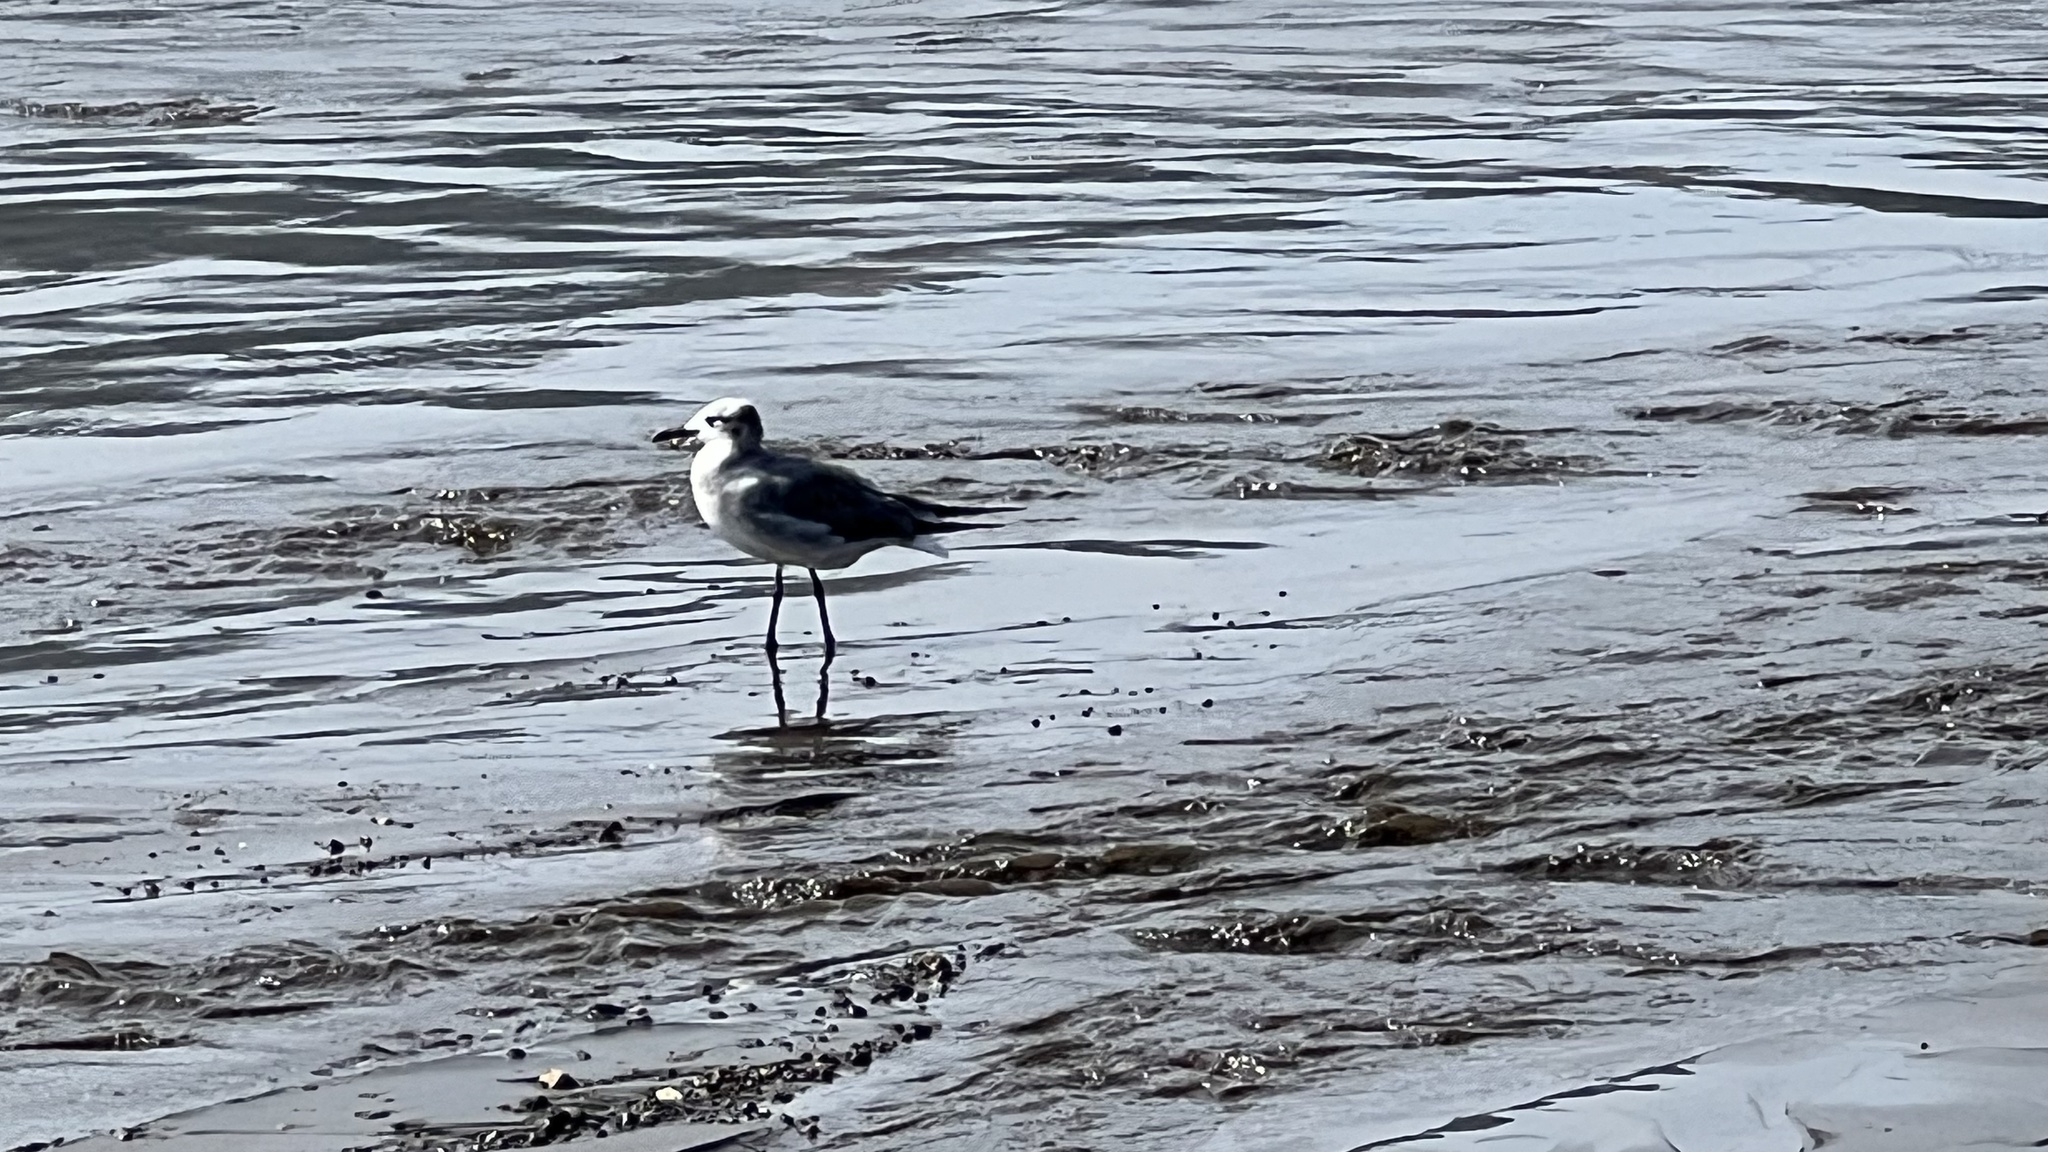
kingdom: Animalia
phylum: Chordata
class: Aves
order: Charadriiformes
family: Laridae
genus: Leucophaeus
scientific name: Leucophaeus atricilla
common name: Laughing gull
